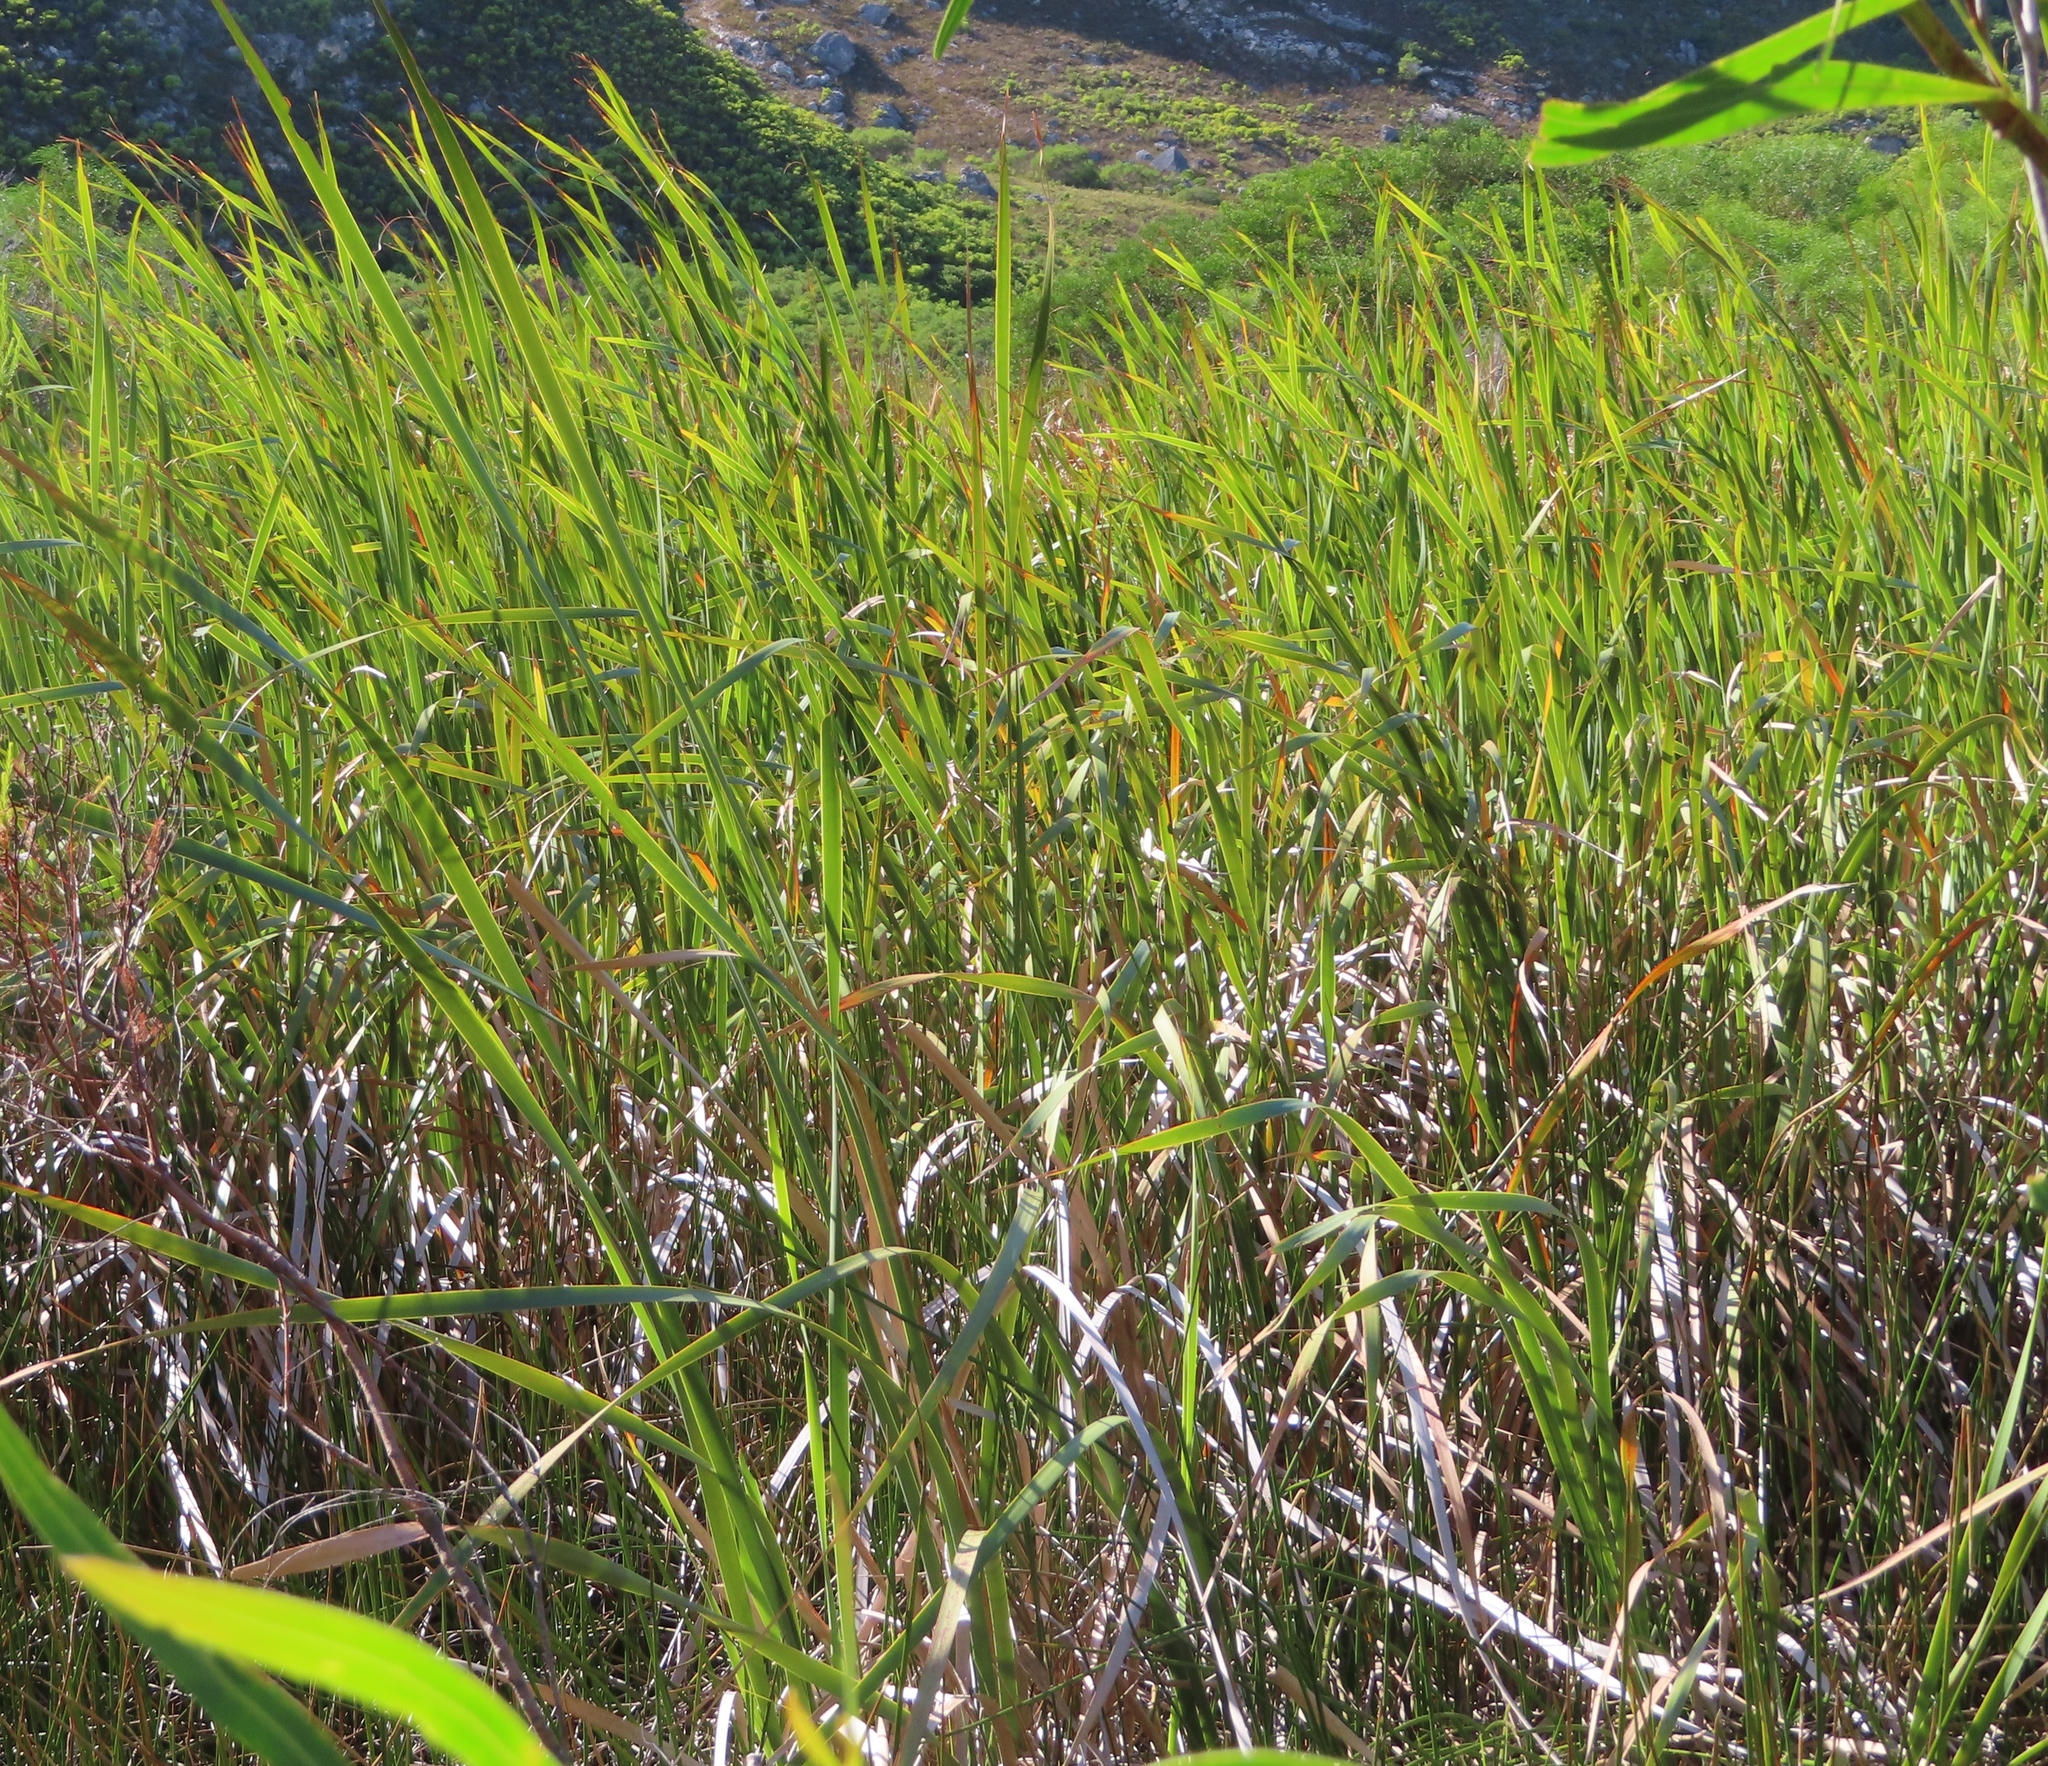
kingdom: Plantae
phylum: Tracheophyta
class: Liliopsida
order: Poales
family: Typhaceae
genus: Typha
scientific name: Typha capensis
